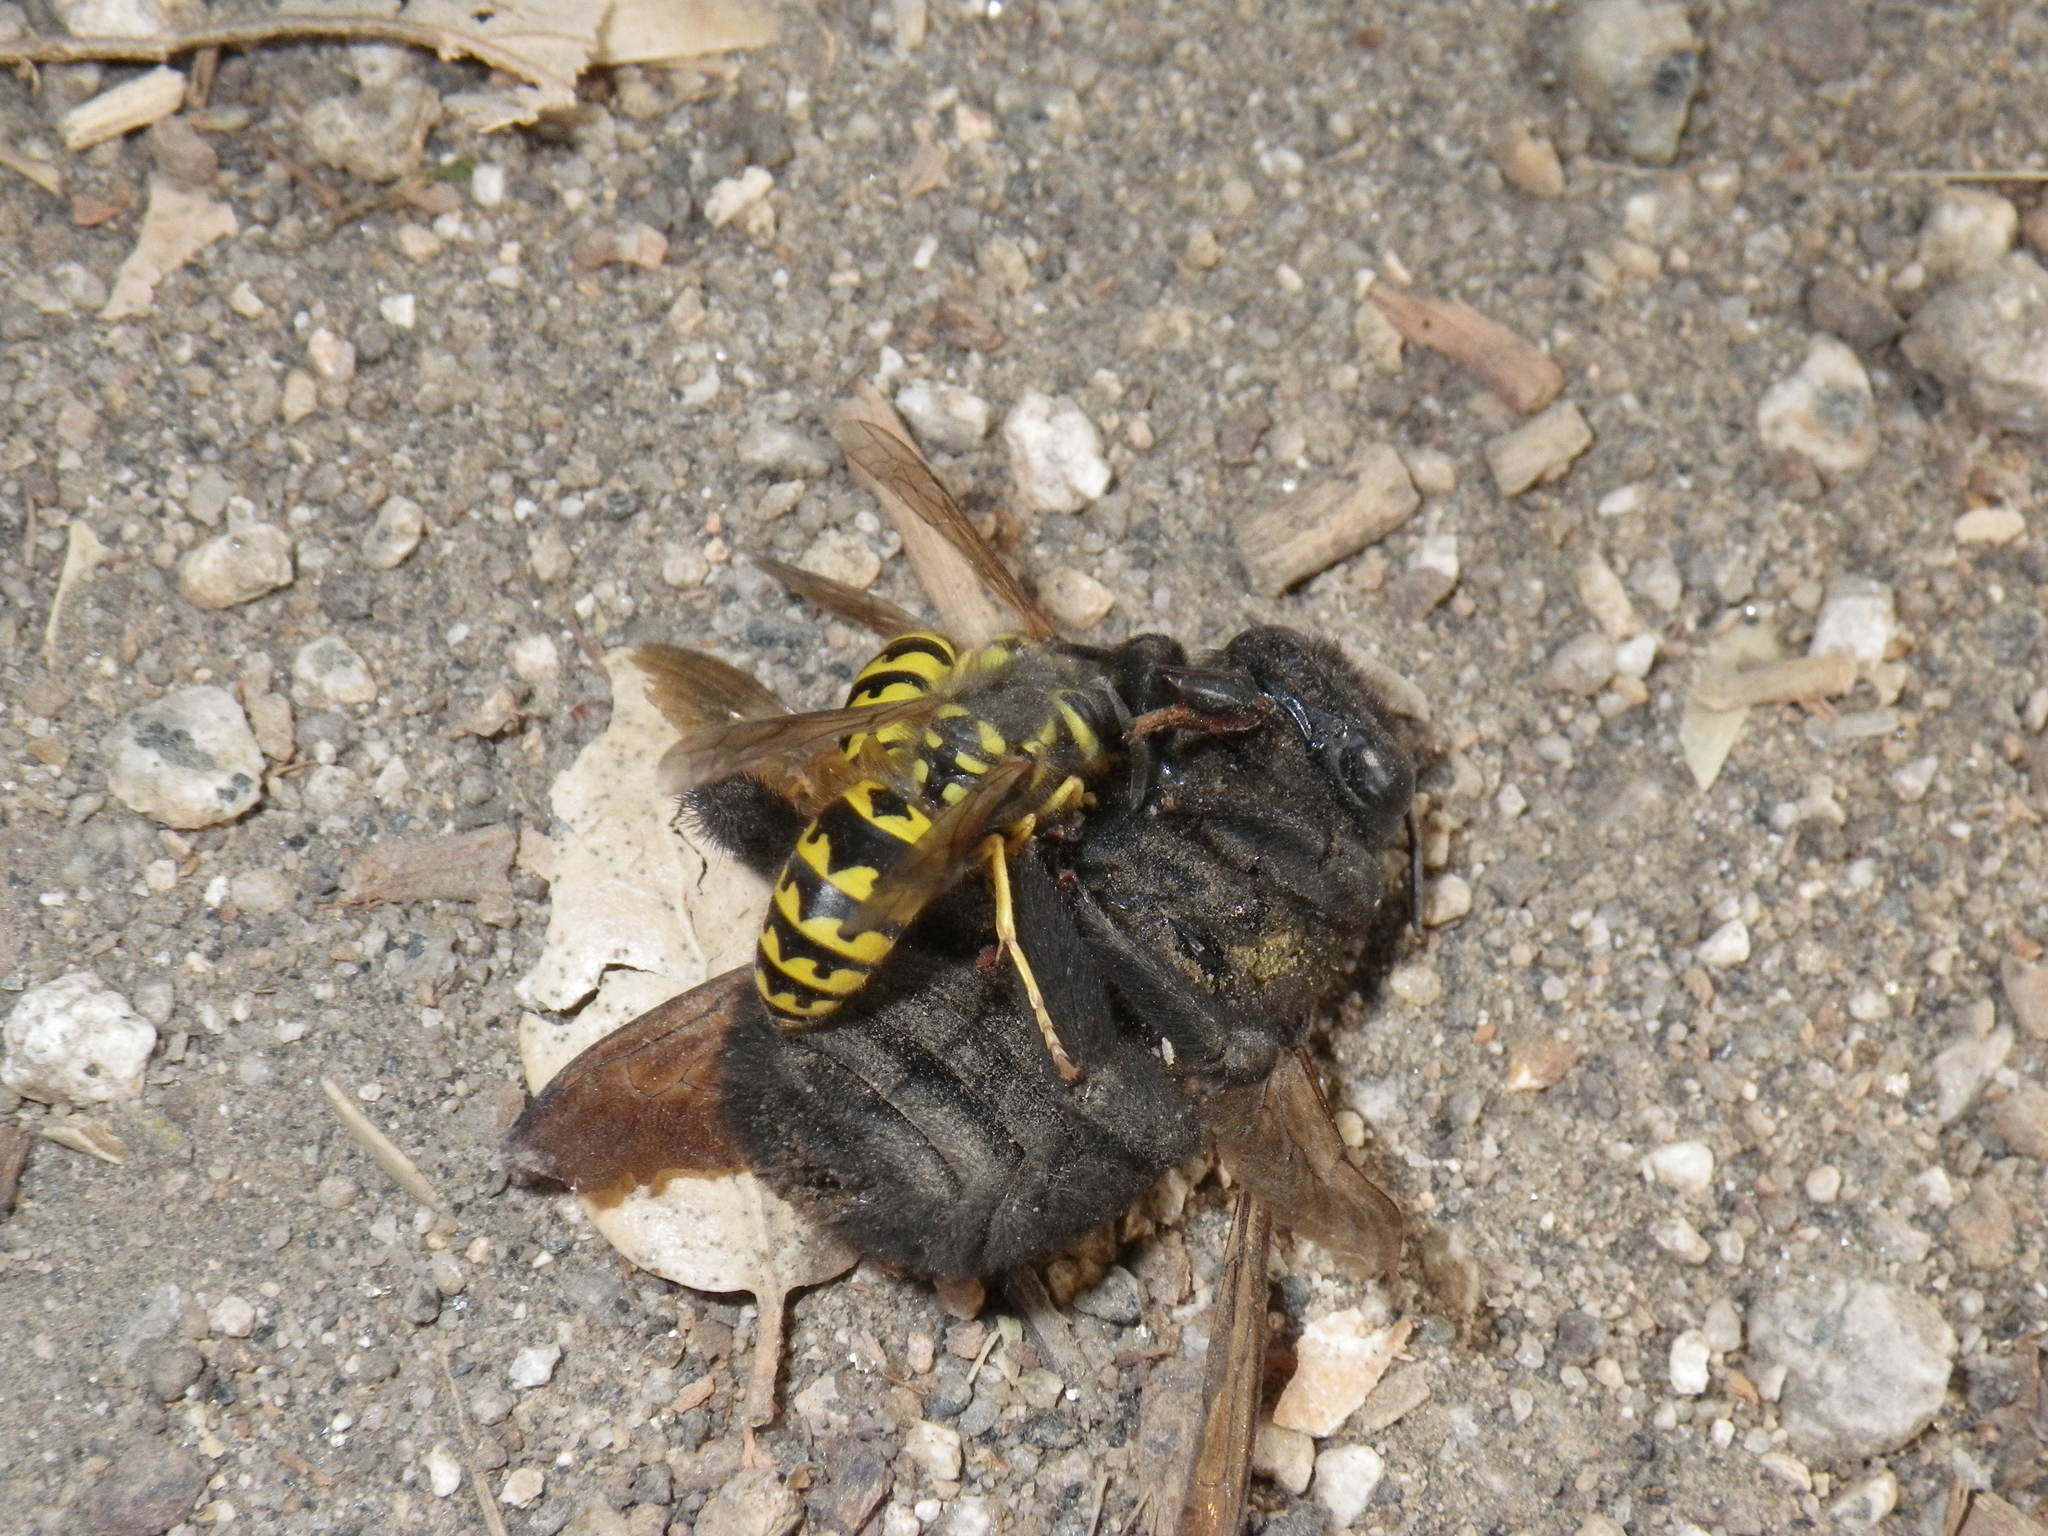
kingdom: Animalia
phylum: Arthropoda
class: Insecta
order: Hymenoptera
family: Vespidae
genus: Vespula
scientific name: Vespula pensylvanica
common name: Western yellowjacket
